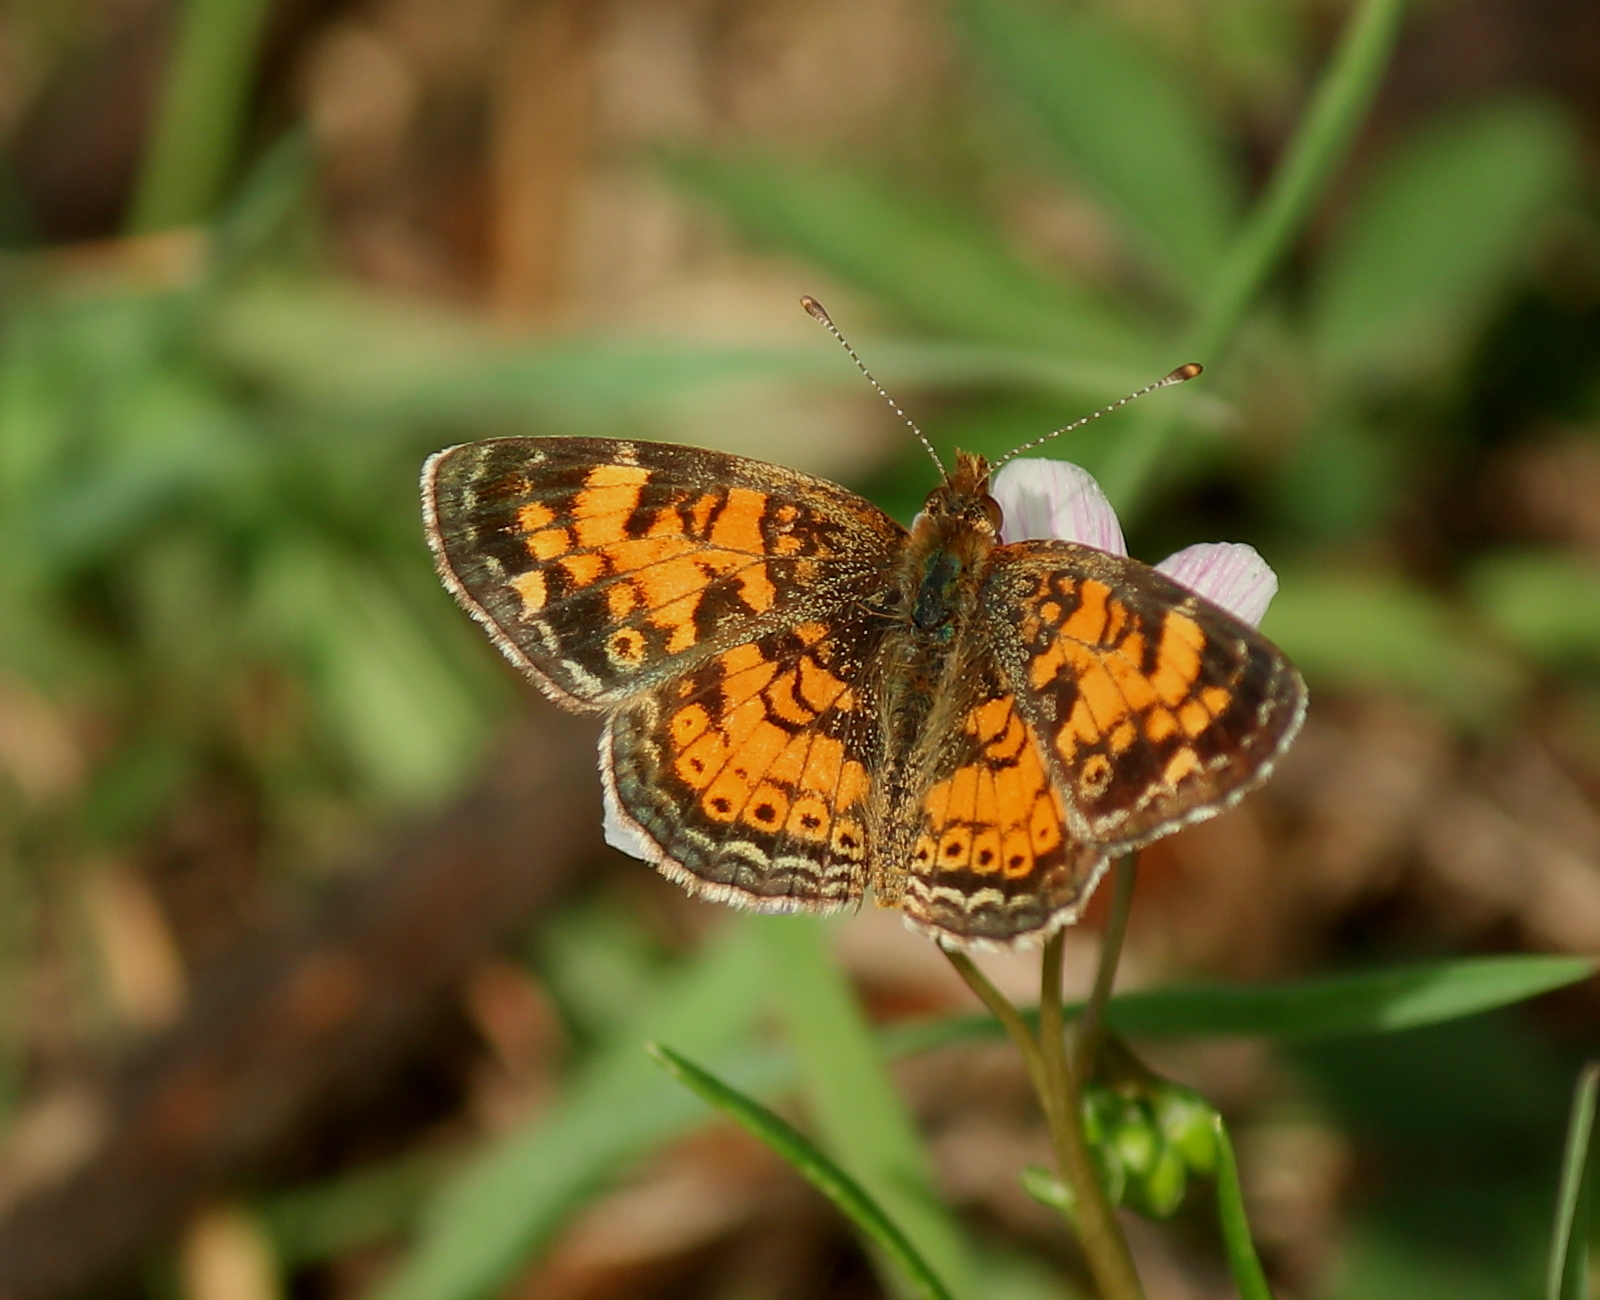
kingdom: Animalia
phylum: Arthropoda
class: Insecta
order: Lepidoptera
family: Nymphalidae
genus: Phyciodes
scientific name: Phyciodes tharos
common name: Pearl crescent
